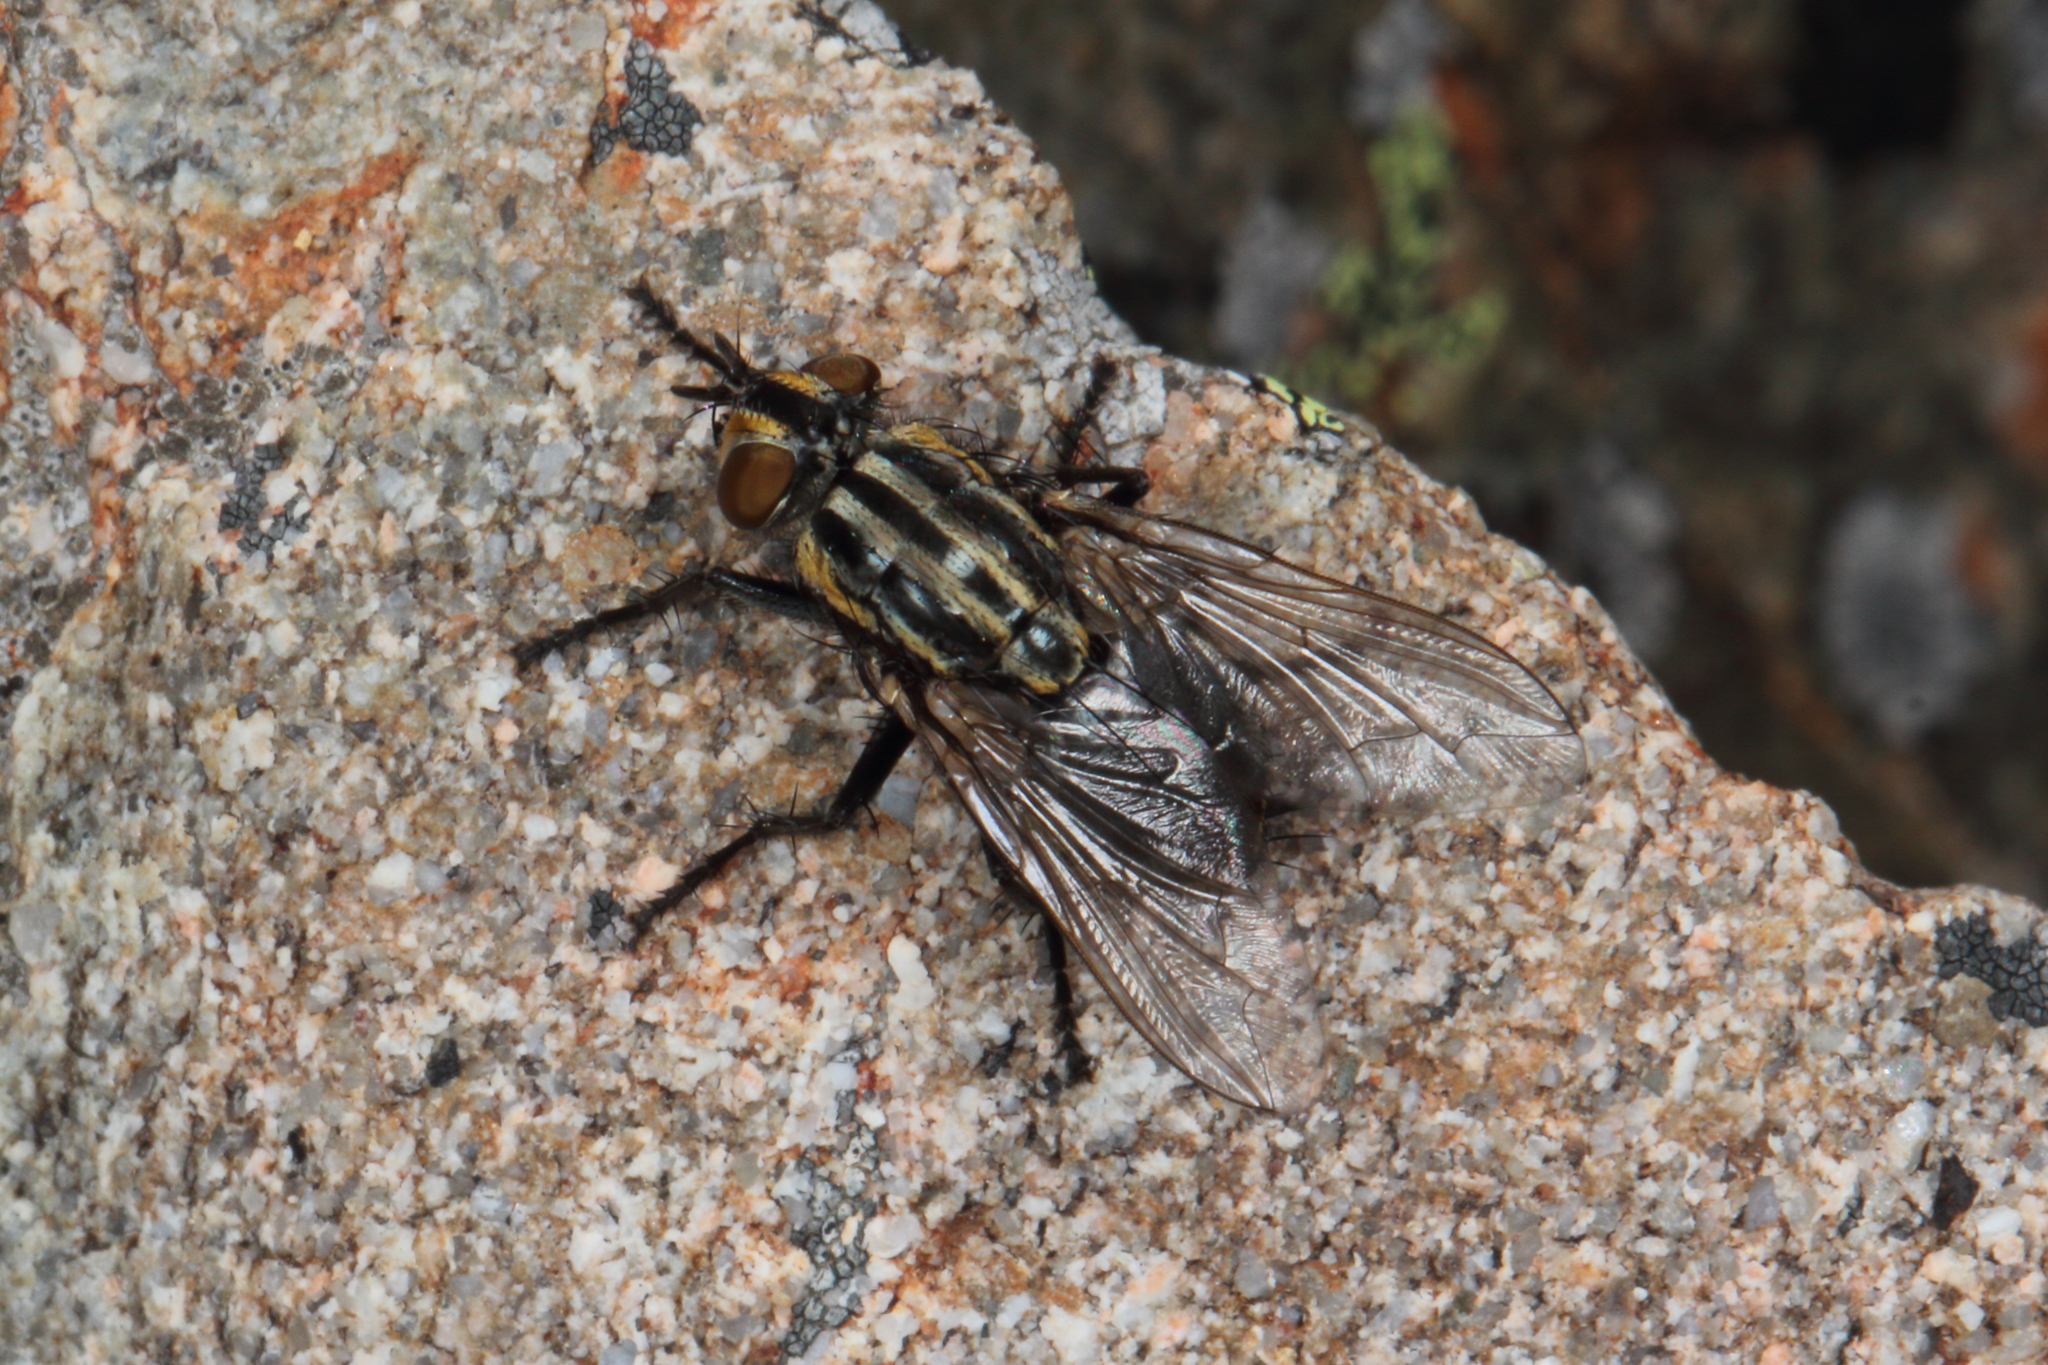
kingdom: Animalia
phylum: Arthropoda
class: Insecta
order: Diptera
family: Sarcophagidae
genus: Oxysarcodexia
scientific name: Oxysarcodexia varia
